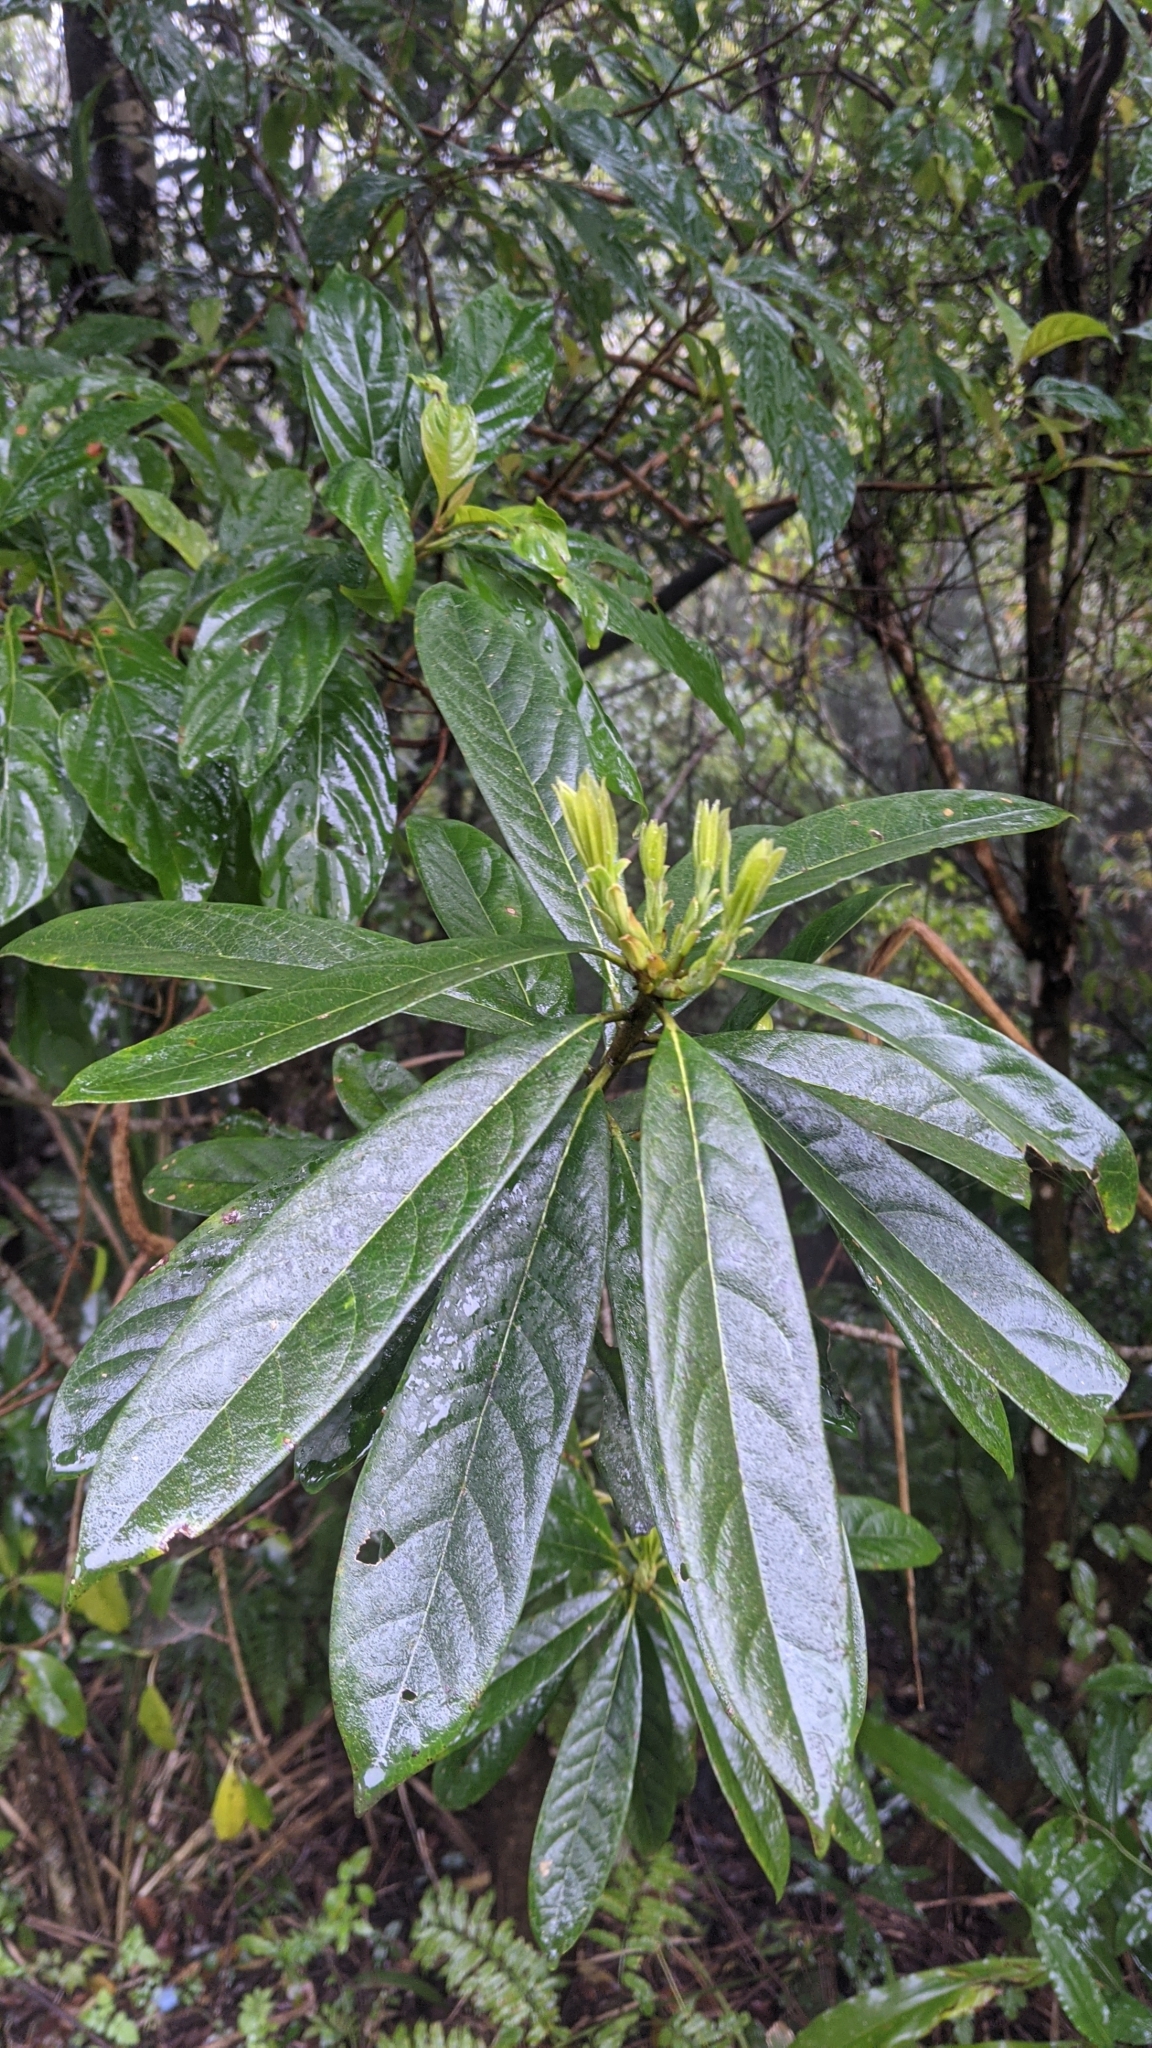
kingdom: Plantae
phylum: Tracheophyta
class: Magnoliopsida
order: Ericales
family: Symplocaceae
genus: Symplocos
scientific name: Symplocos glauca
